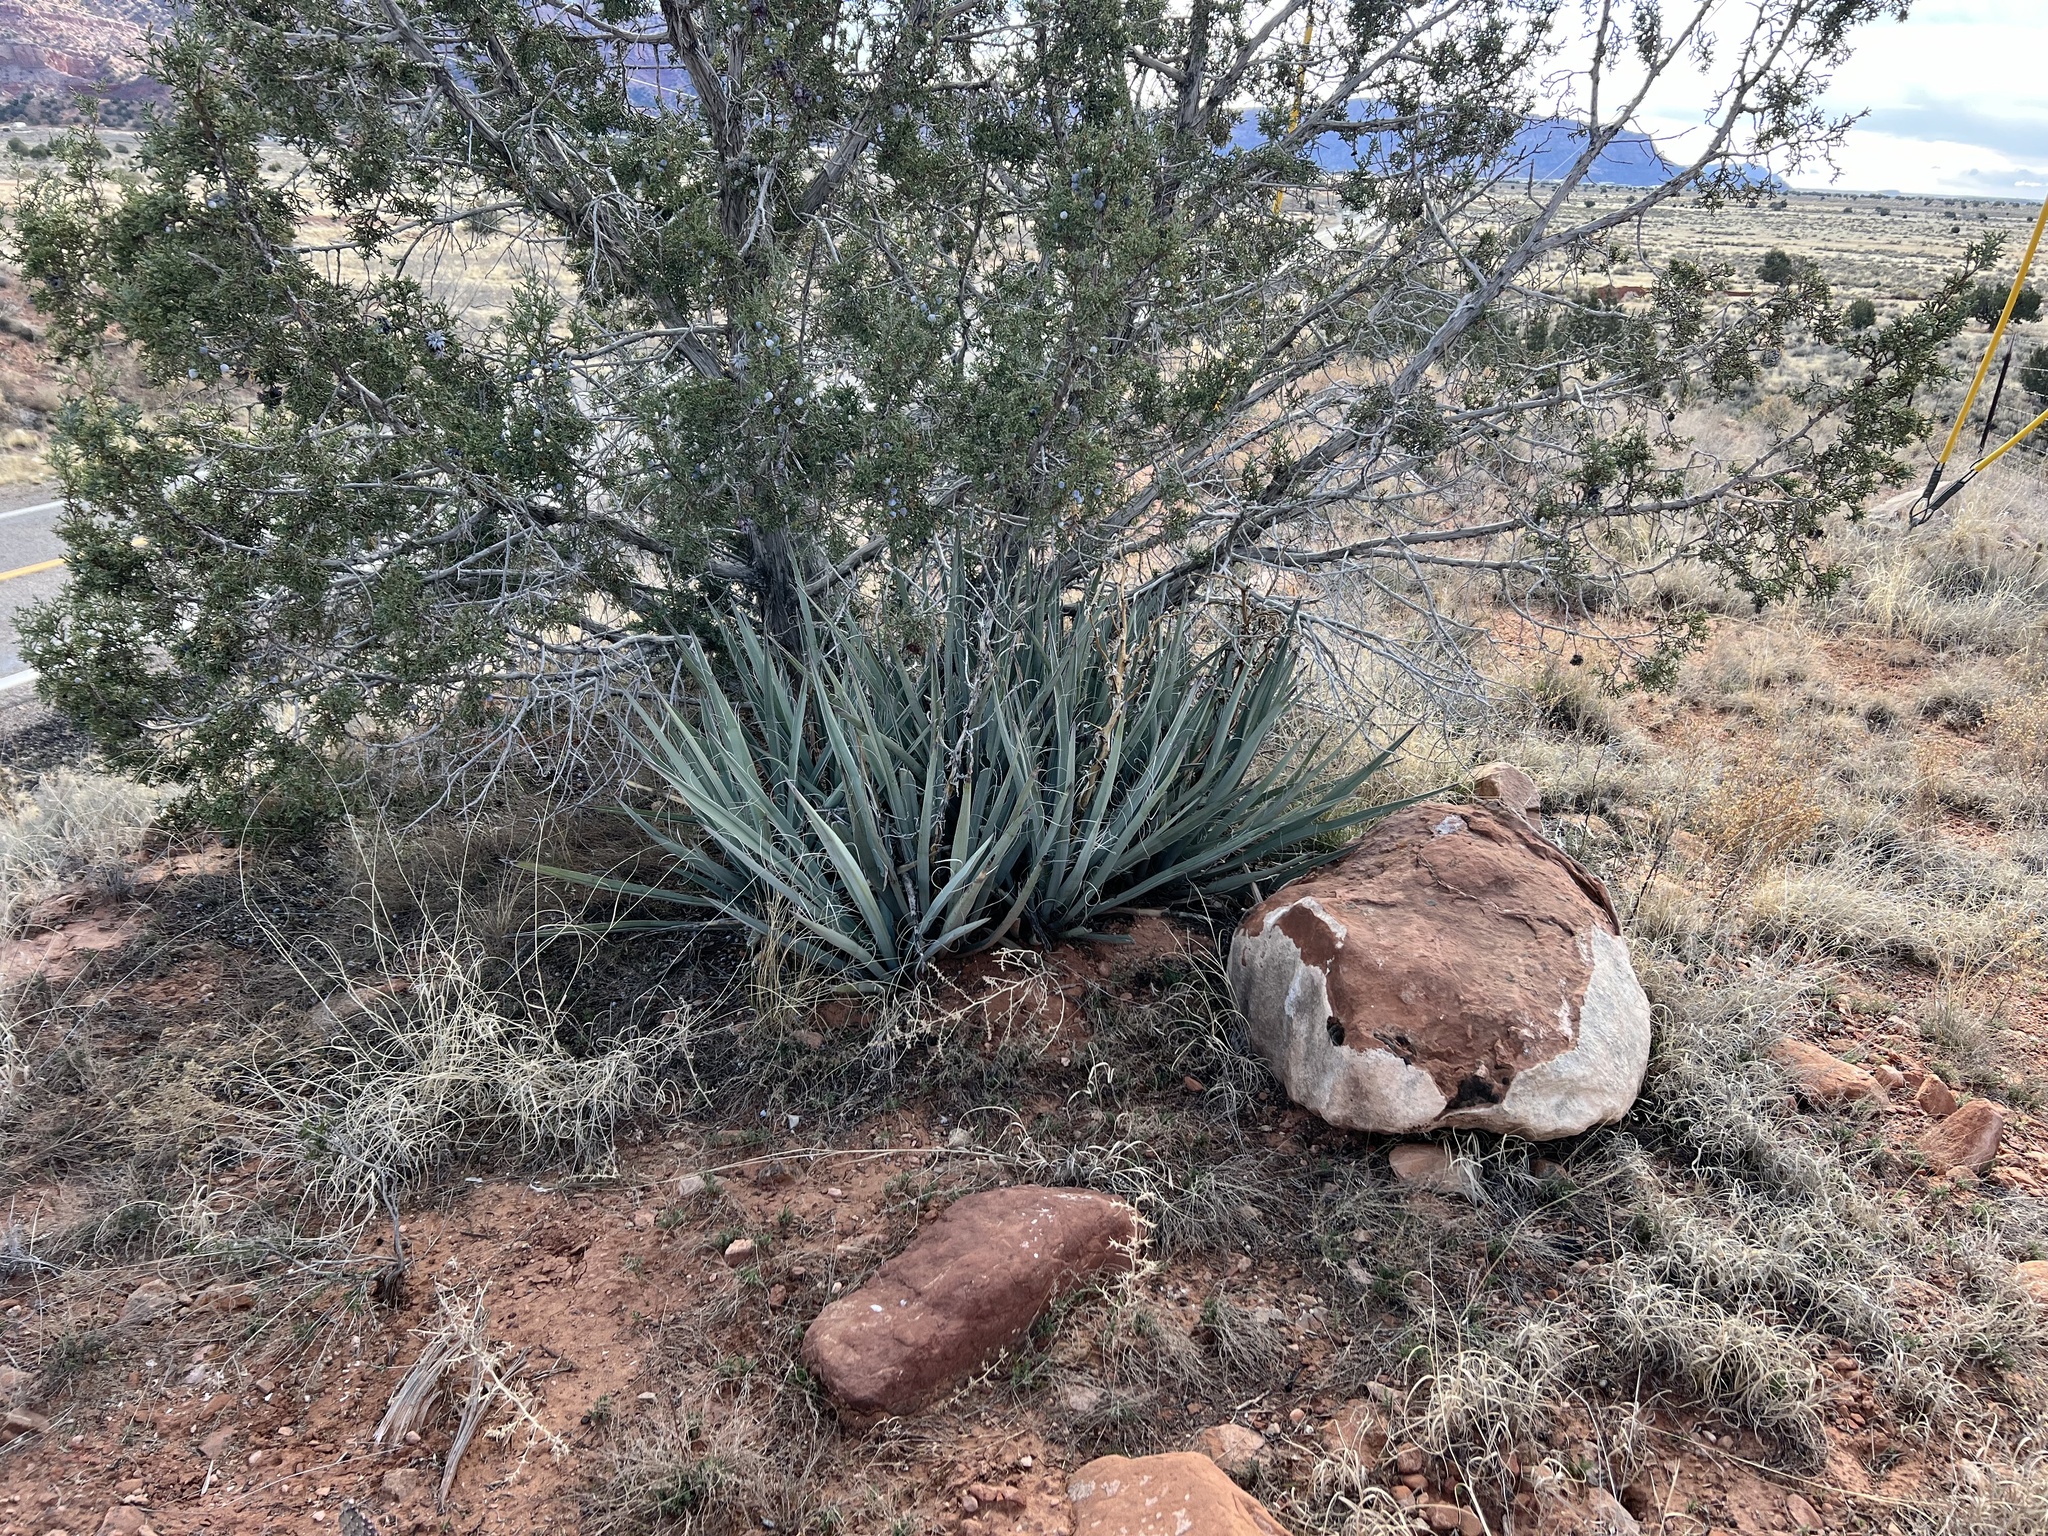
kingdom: Plantae
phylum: Tracheophyta
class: Liliopsida
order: Asparagales
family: Asparagaceae
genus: Yucca
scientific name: Yucca baccata
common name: Banana yucca
